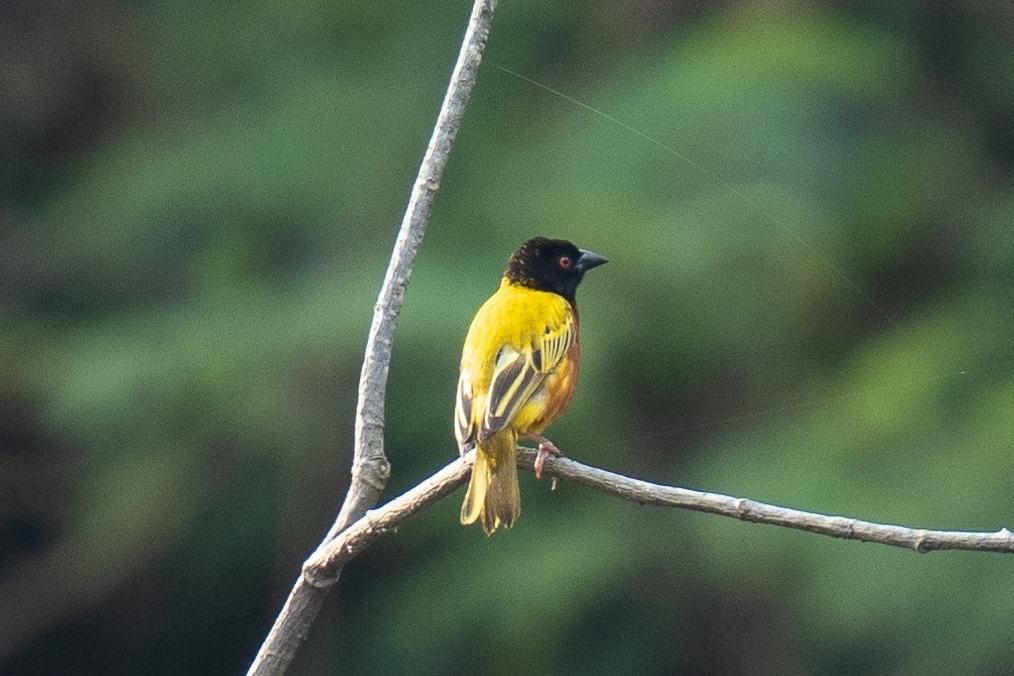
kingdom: Animalia
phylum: Chordata
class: Aves
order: Passeriformes
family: Ploceidae
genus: Ploceus
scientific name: Ploceus jacksoni
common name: Golden-backed weaver
